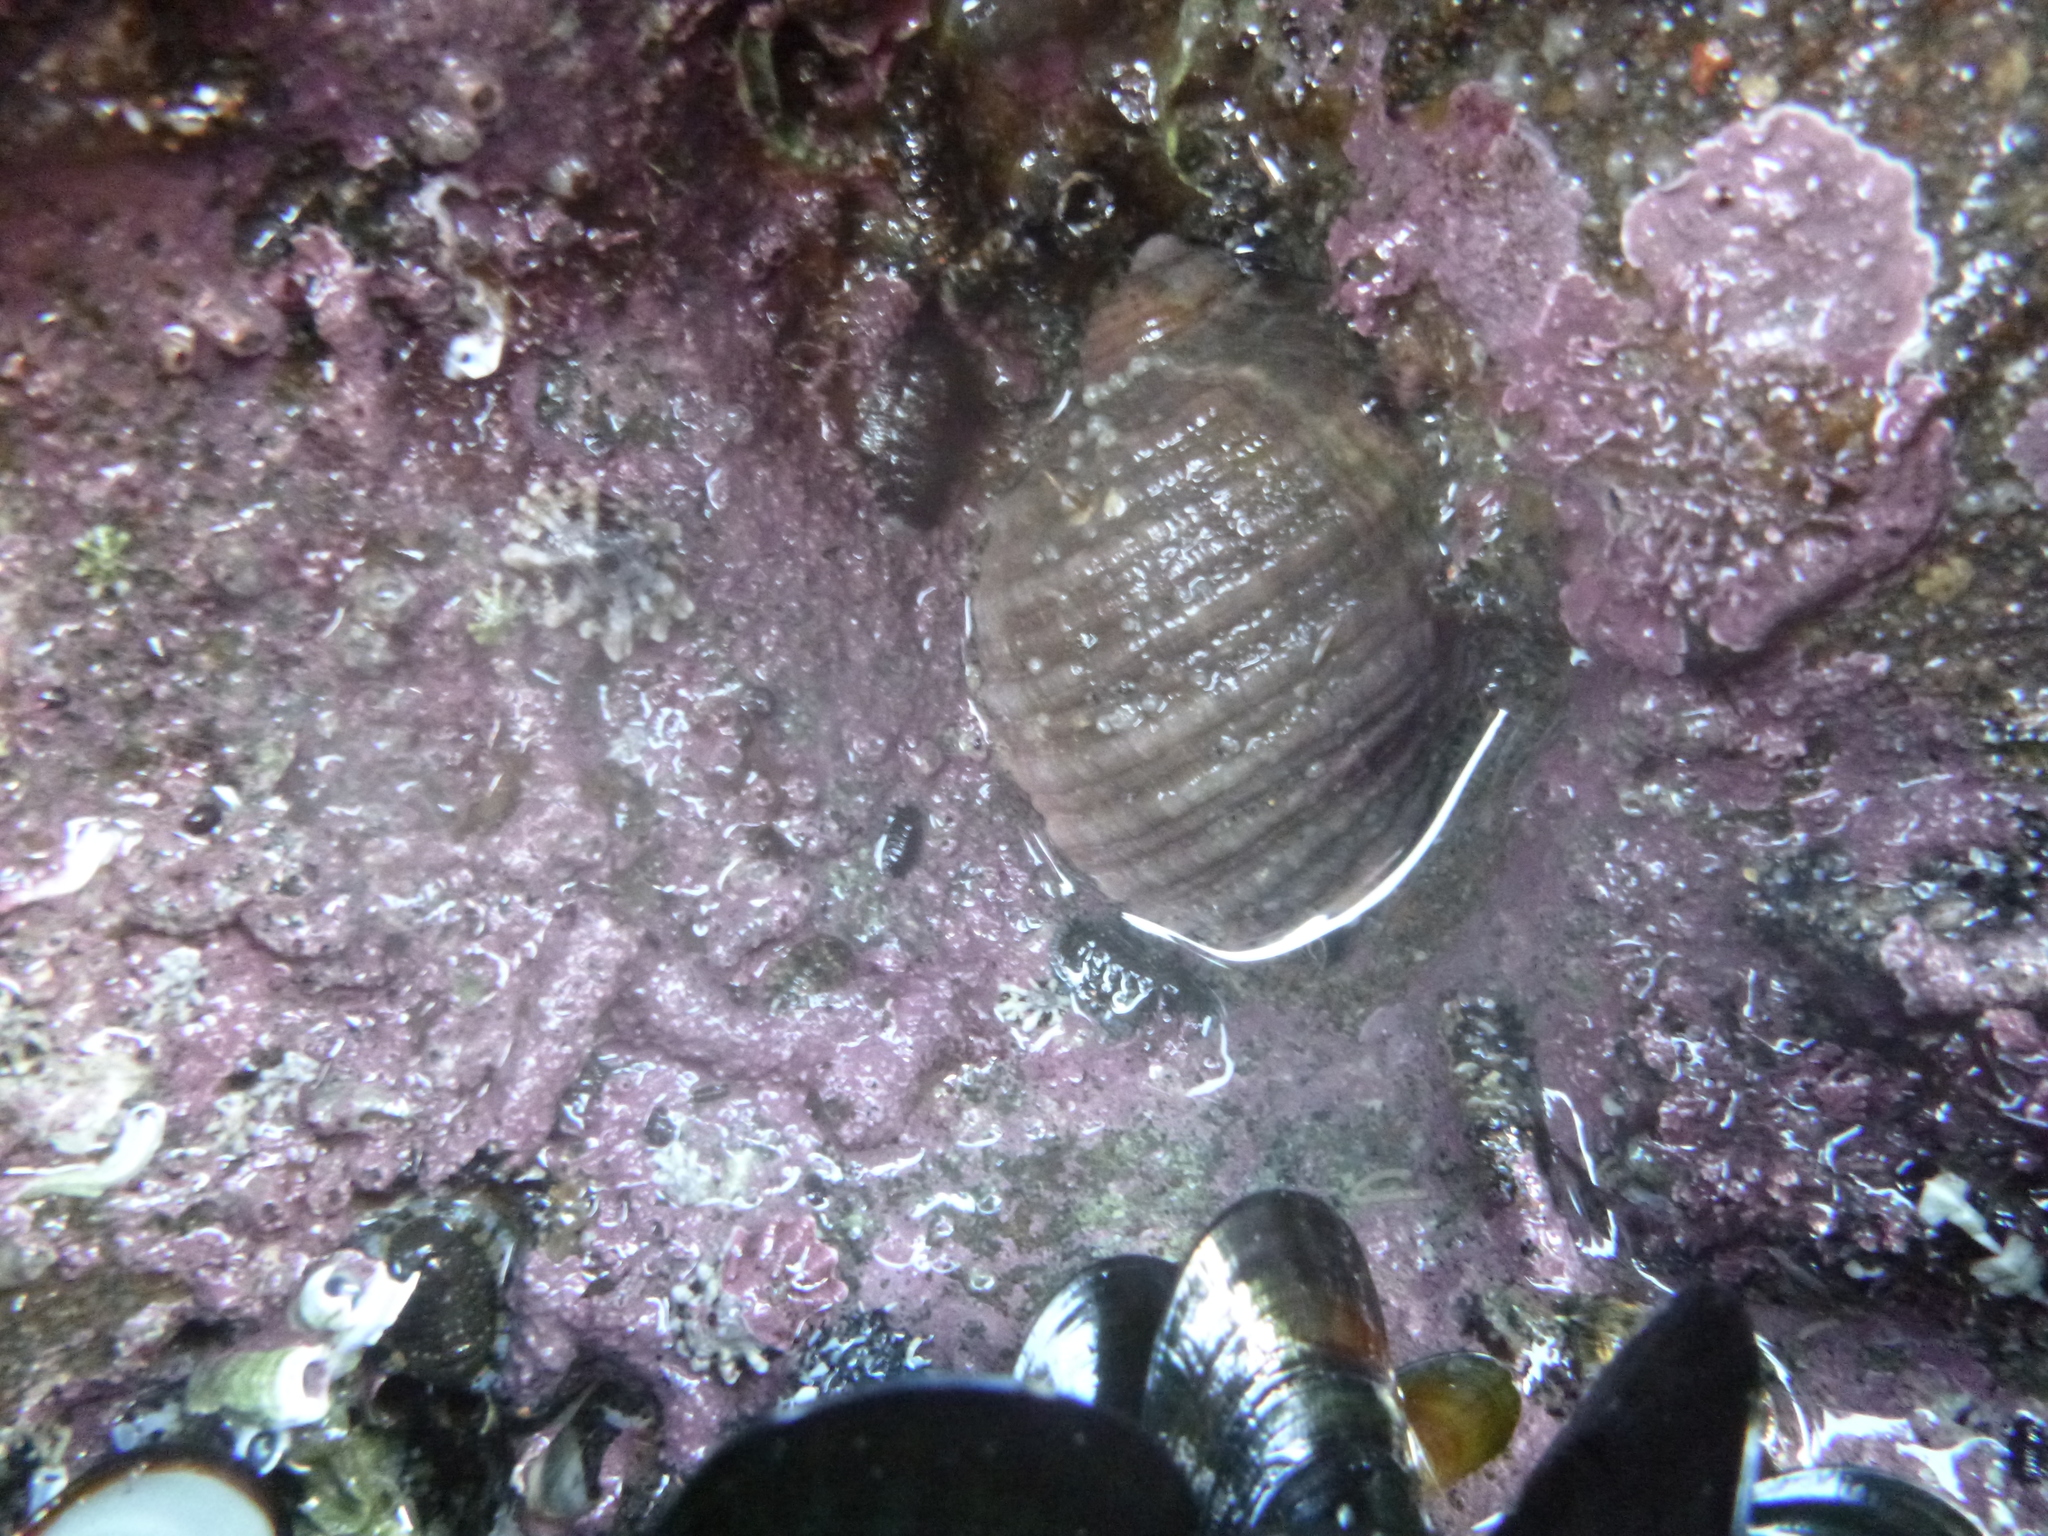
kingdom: Animalia
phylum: Mollusca
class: Gastropoda
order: Neogastropoda
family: Muricidae
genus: Dicathais
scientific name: Dicathais orbita
